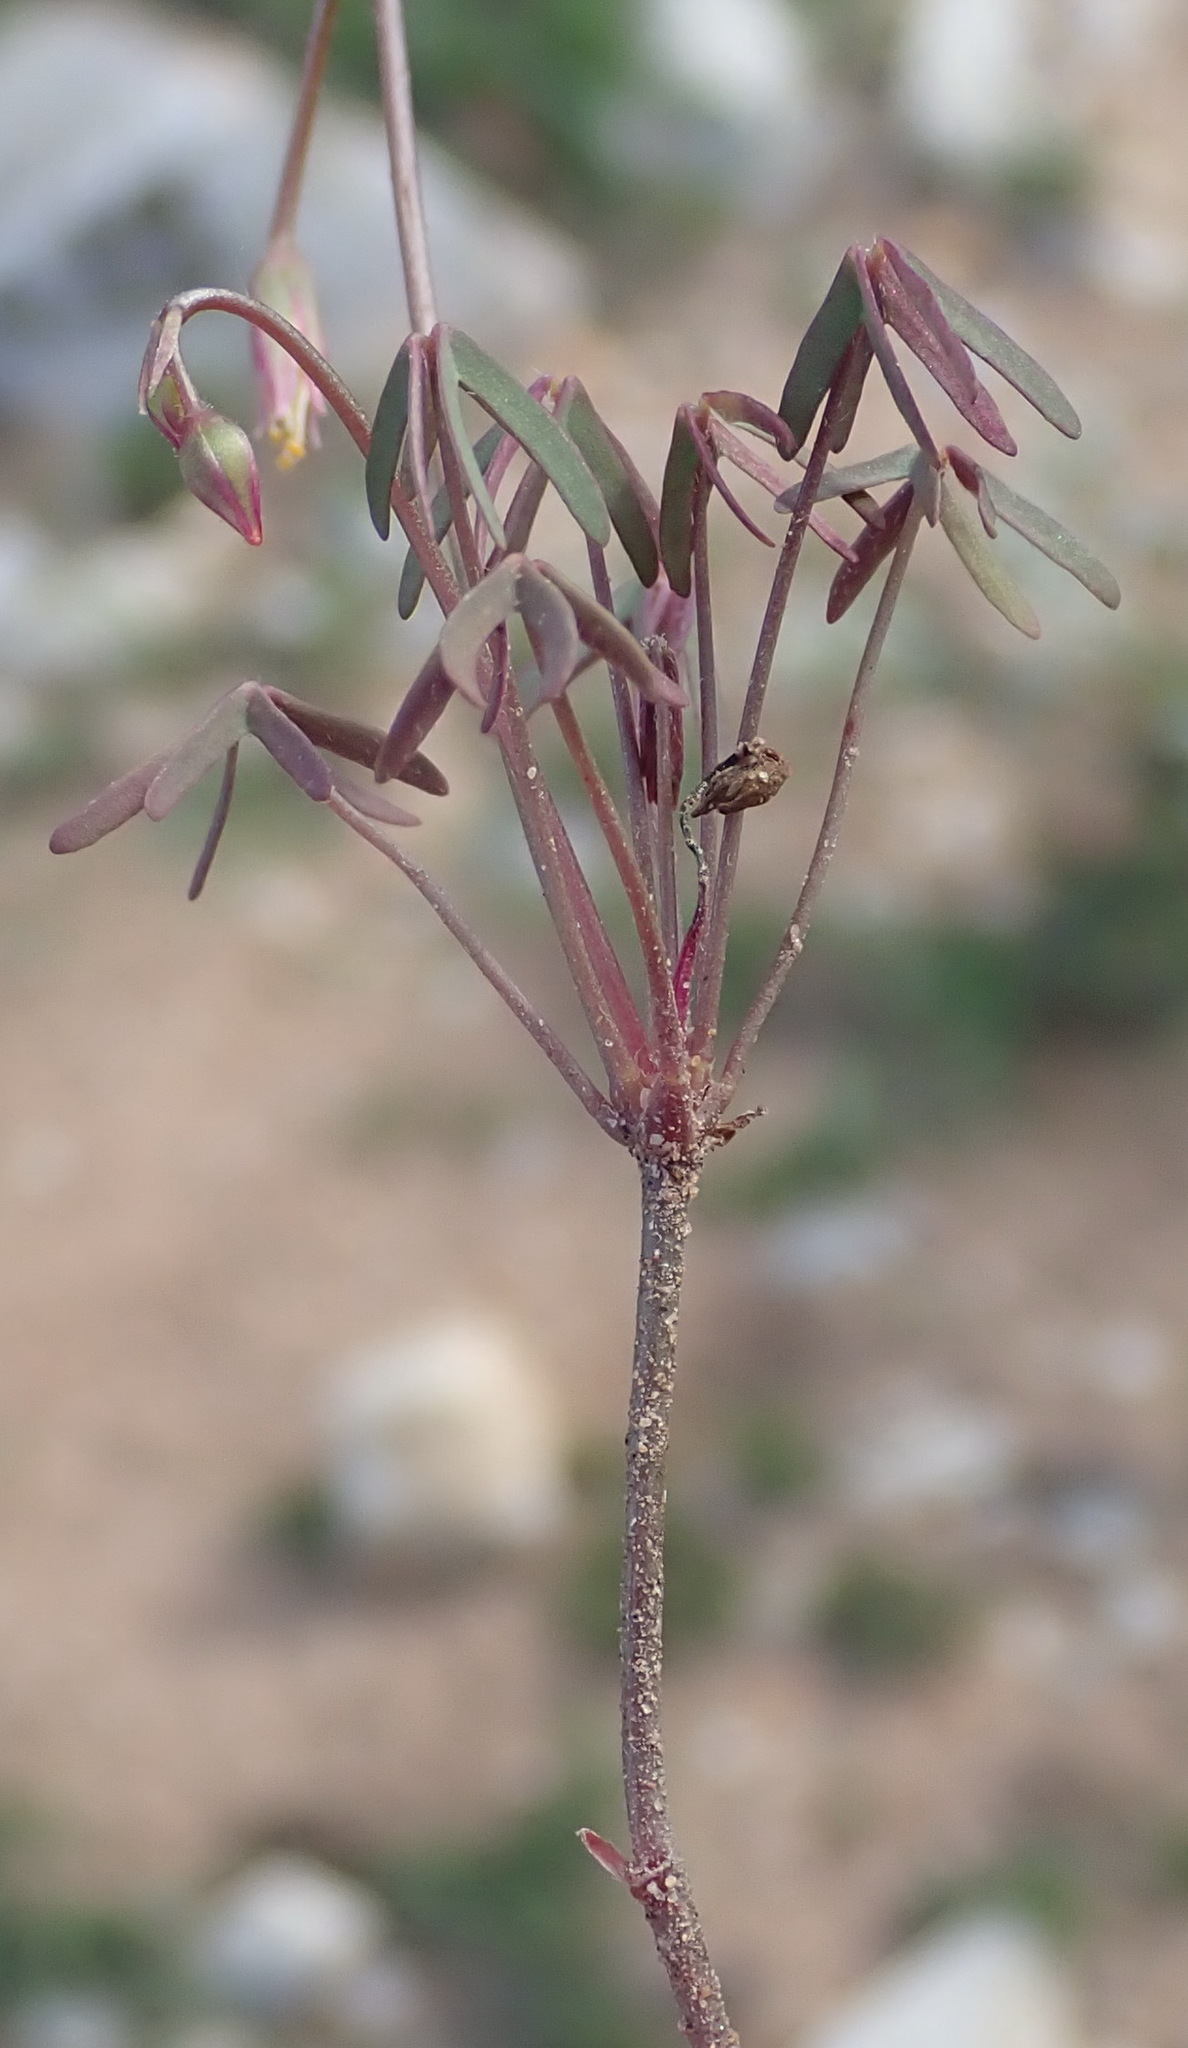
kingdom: Plantae
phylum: Tracheophyta
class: Magnoliopsida
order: Oxalidales
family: Oxalidaceae
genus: Oxalis
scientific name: Oxalis stellata
